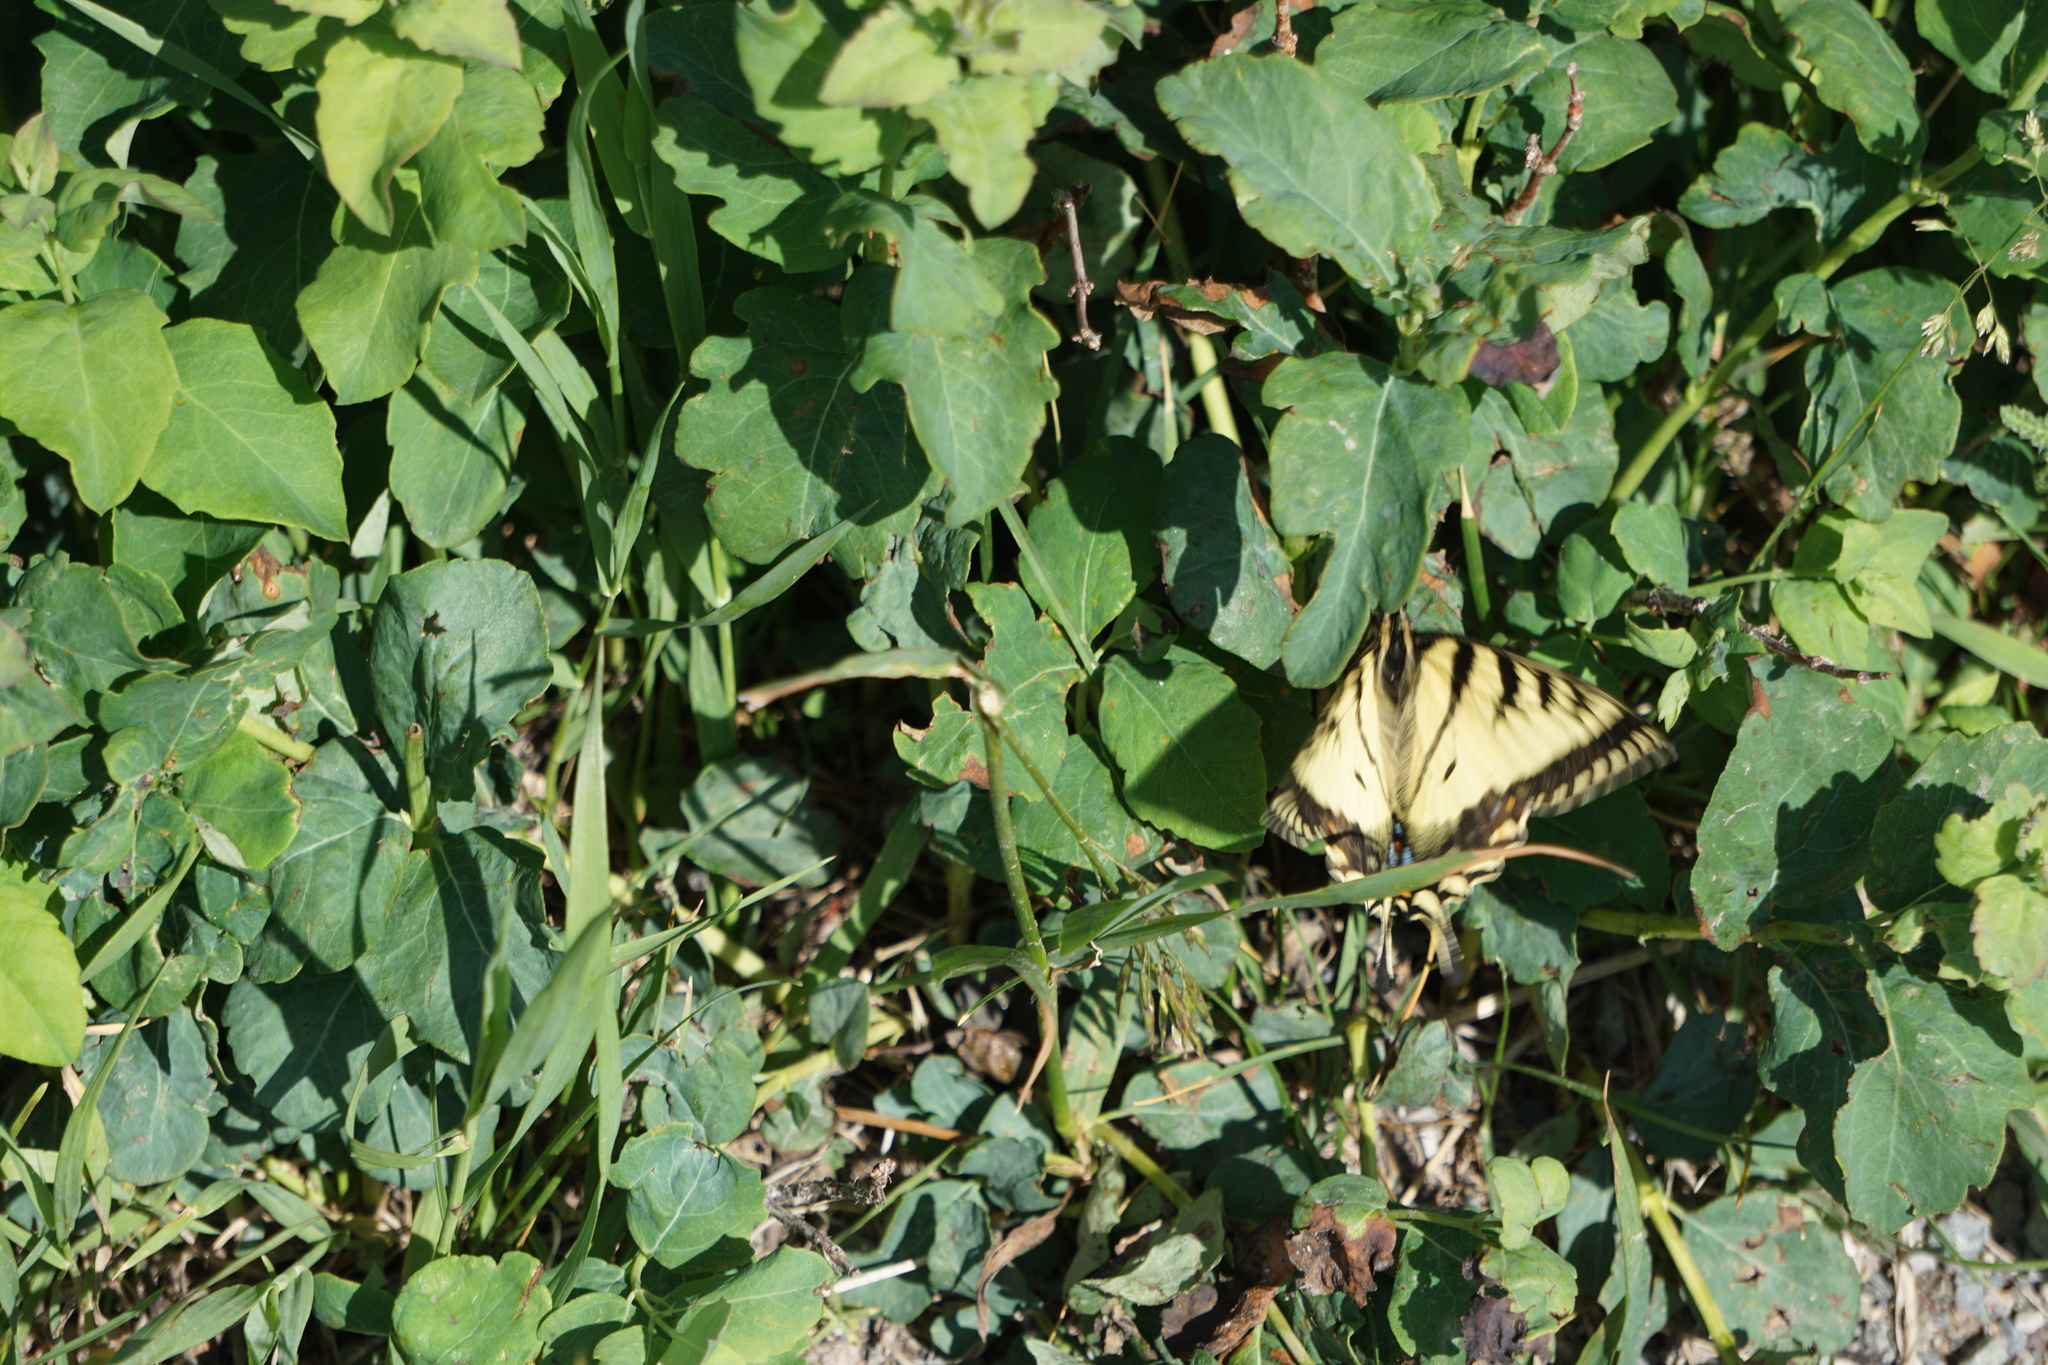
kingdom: Animalia
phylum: Arthropoda
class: Insecta
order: Lepidoptera
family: Papilionidae
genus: Papilio
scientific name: Papilio canadensis
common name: Canadian tiger swallowtail
